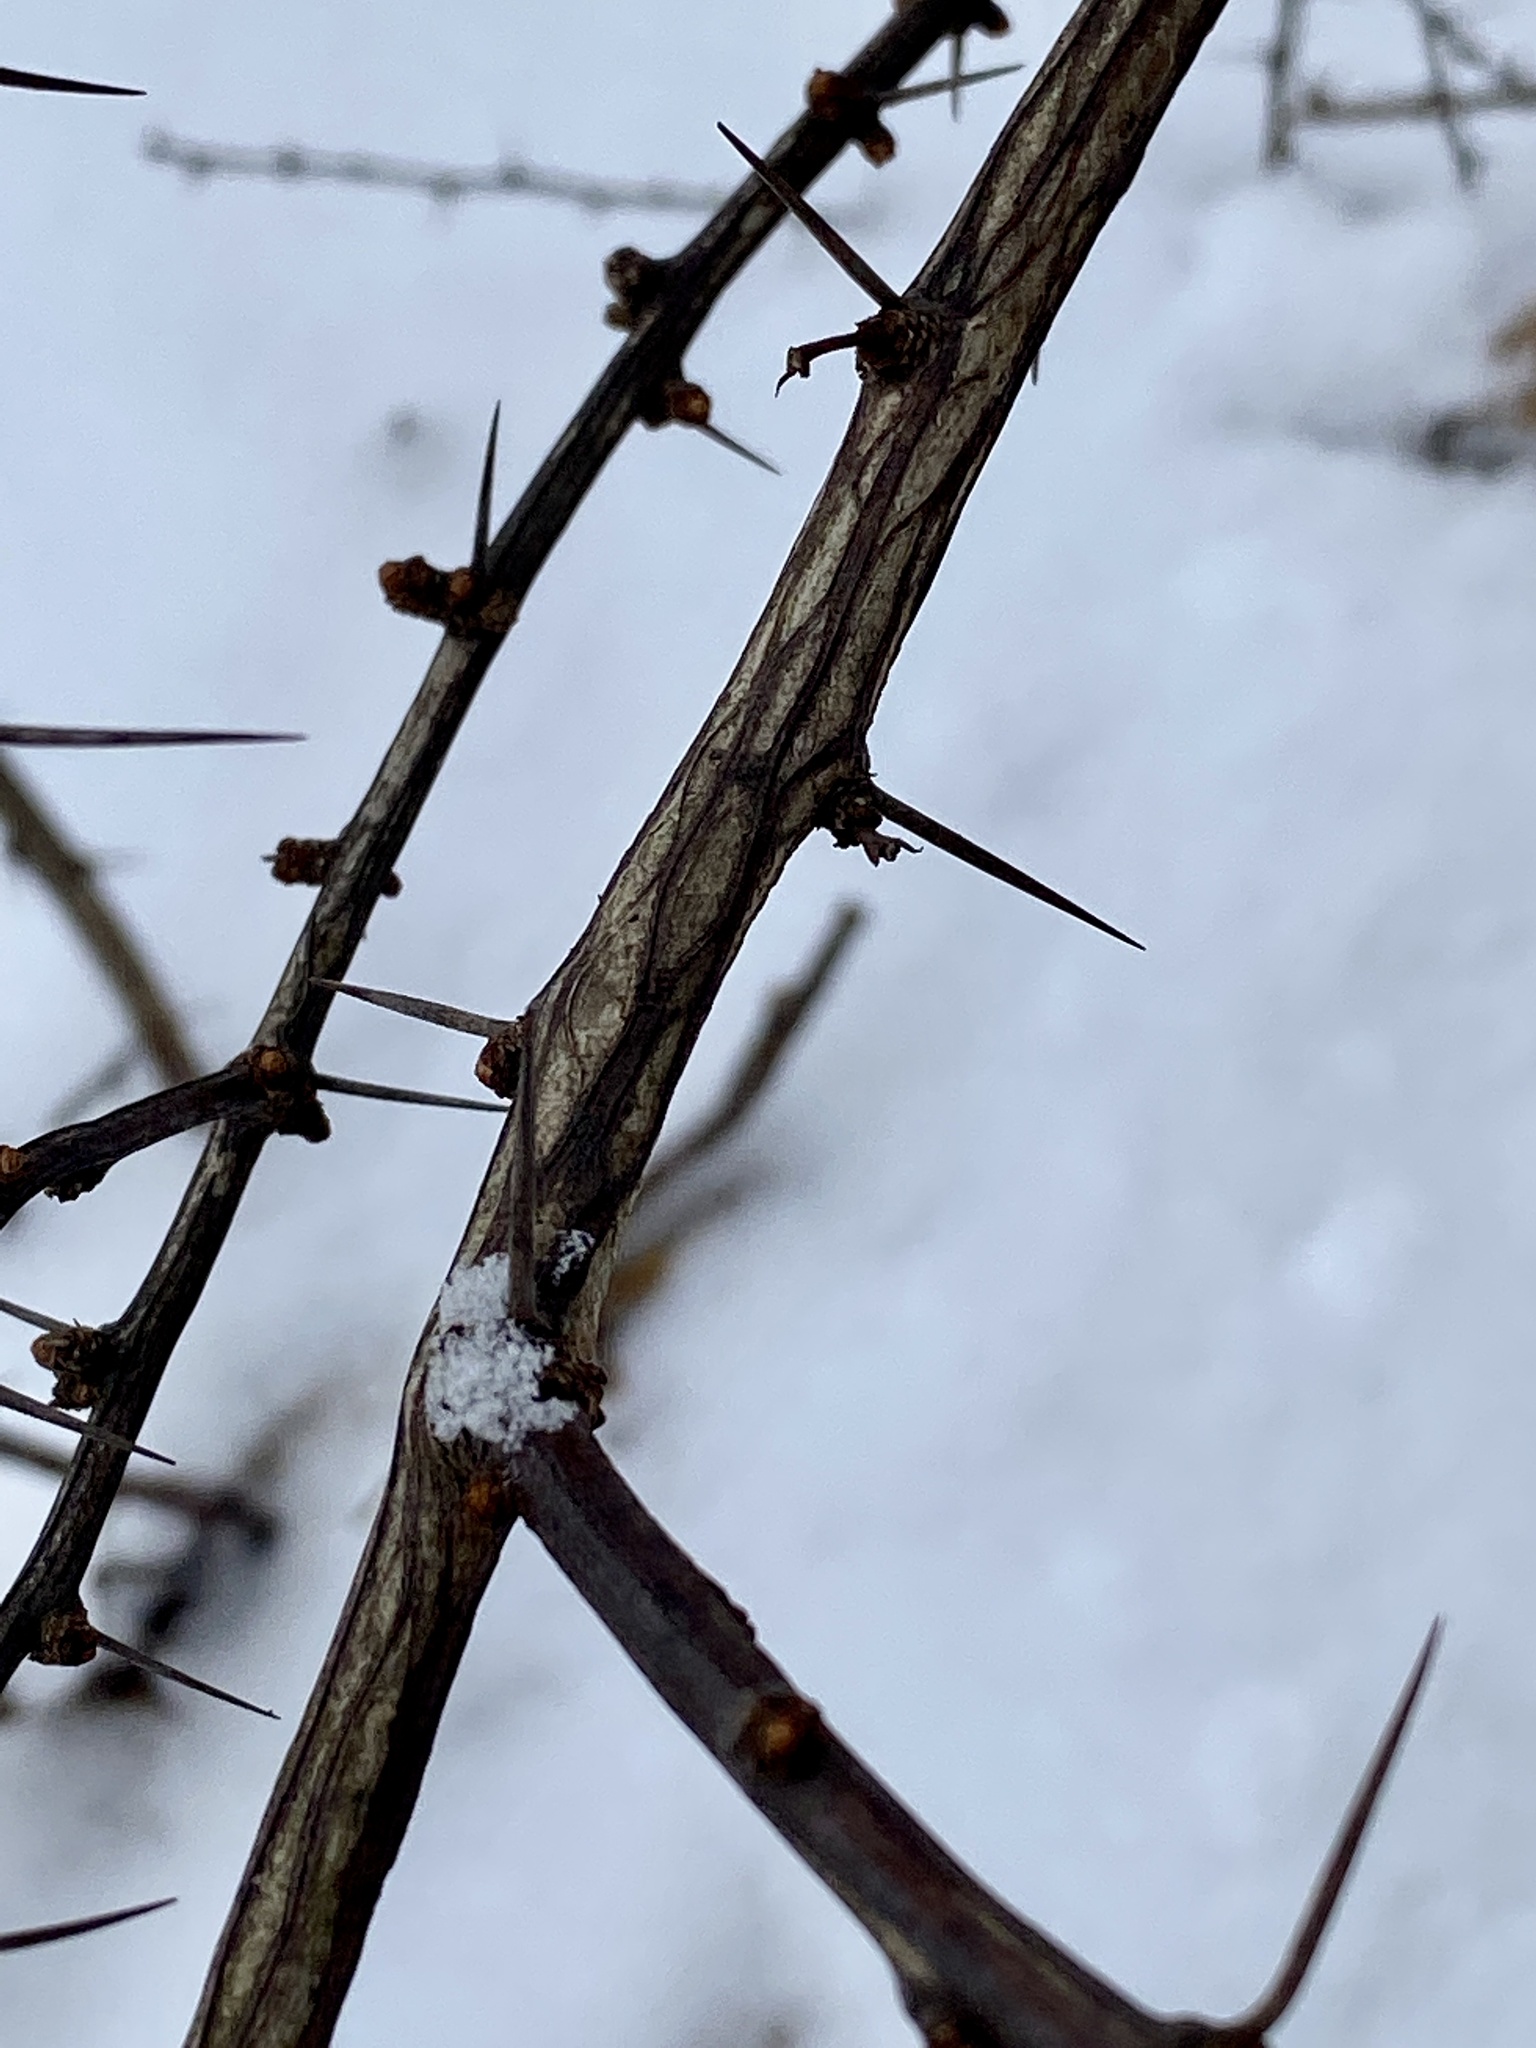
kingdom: Plantae
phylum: Tracheophyta
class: Magnoliopsida
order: Ranunculales
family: Berberidaceae
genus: Berberis
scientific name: Berberis thunbergii
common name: Japanese barberry
